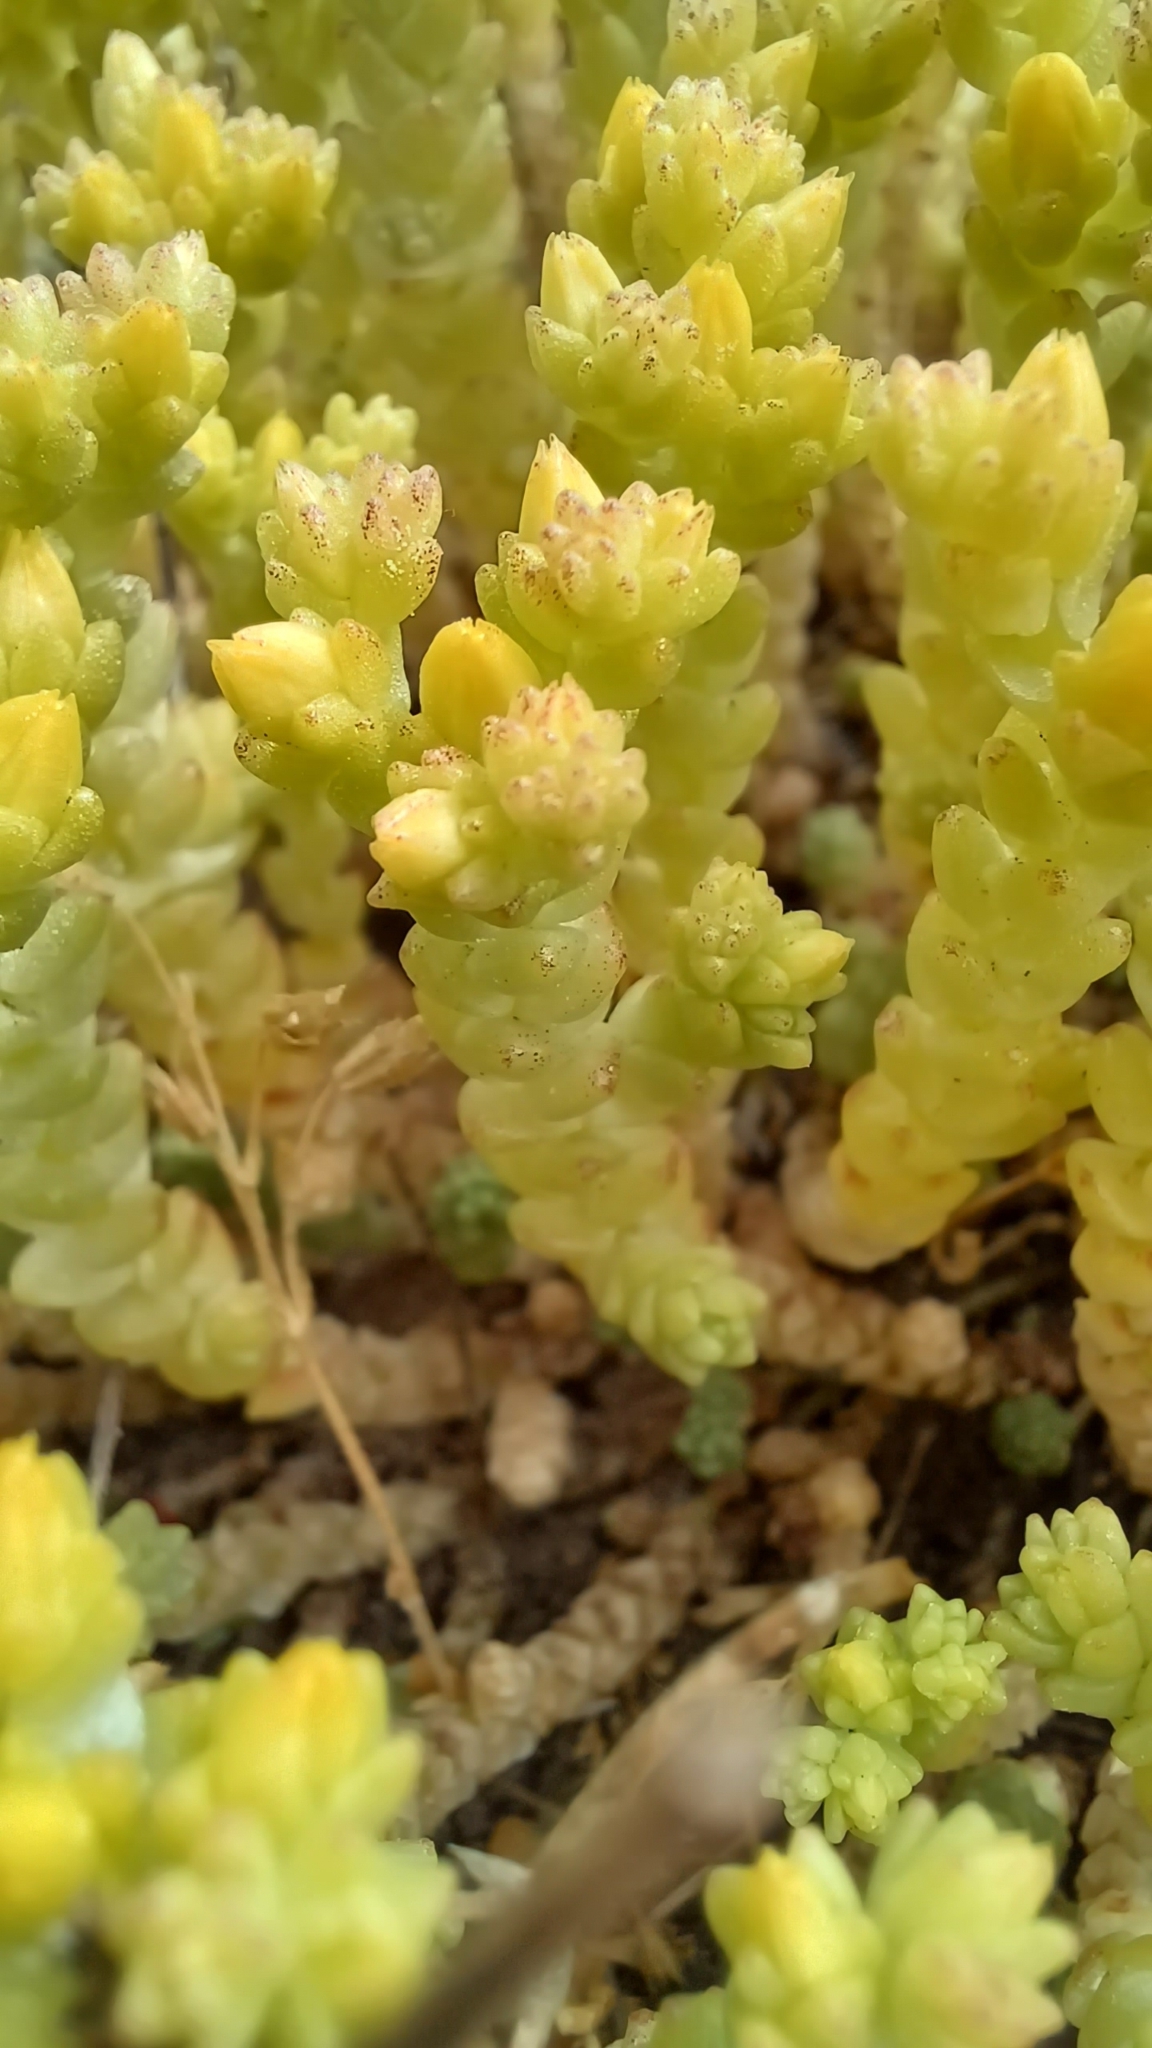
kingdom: Plantae
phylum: Tracheophyta
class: Magnoliopsida
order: Saxifragales
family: Crassulaceae
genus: Sedum
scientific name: Sedum acre
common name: Biting stonecrop
